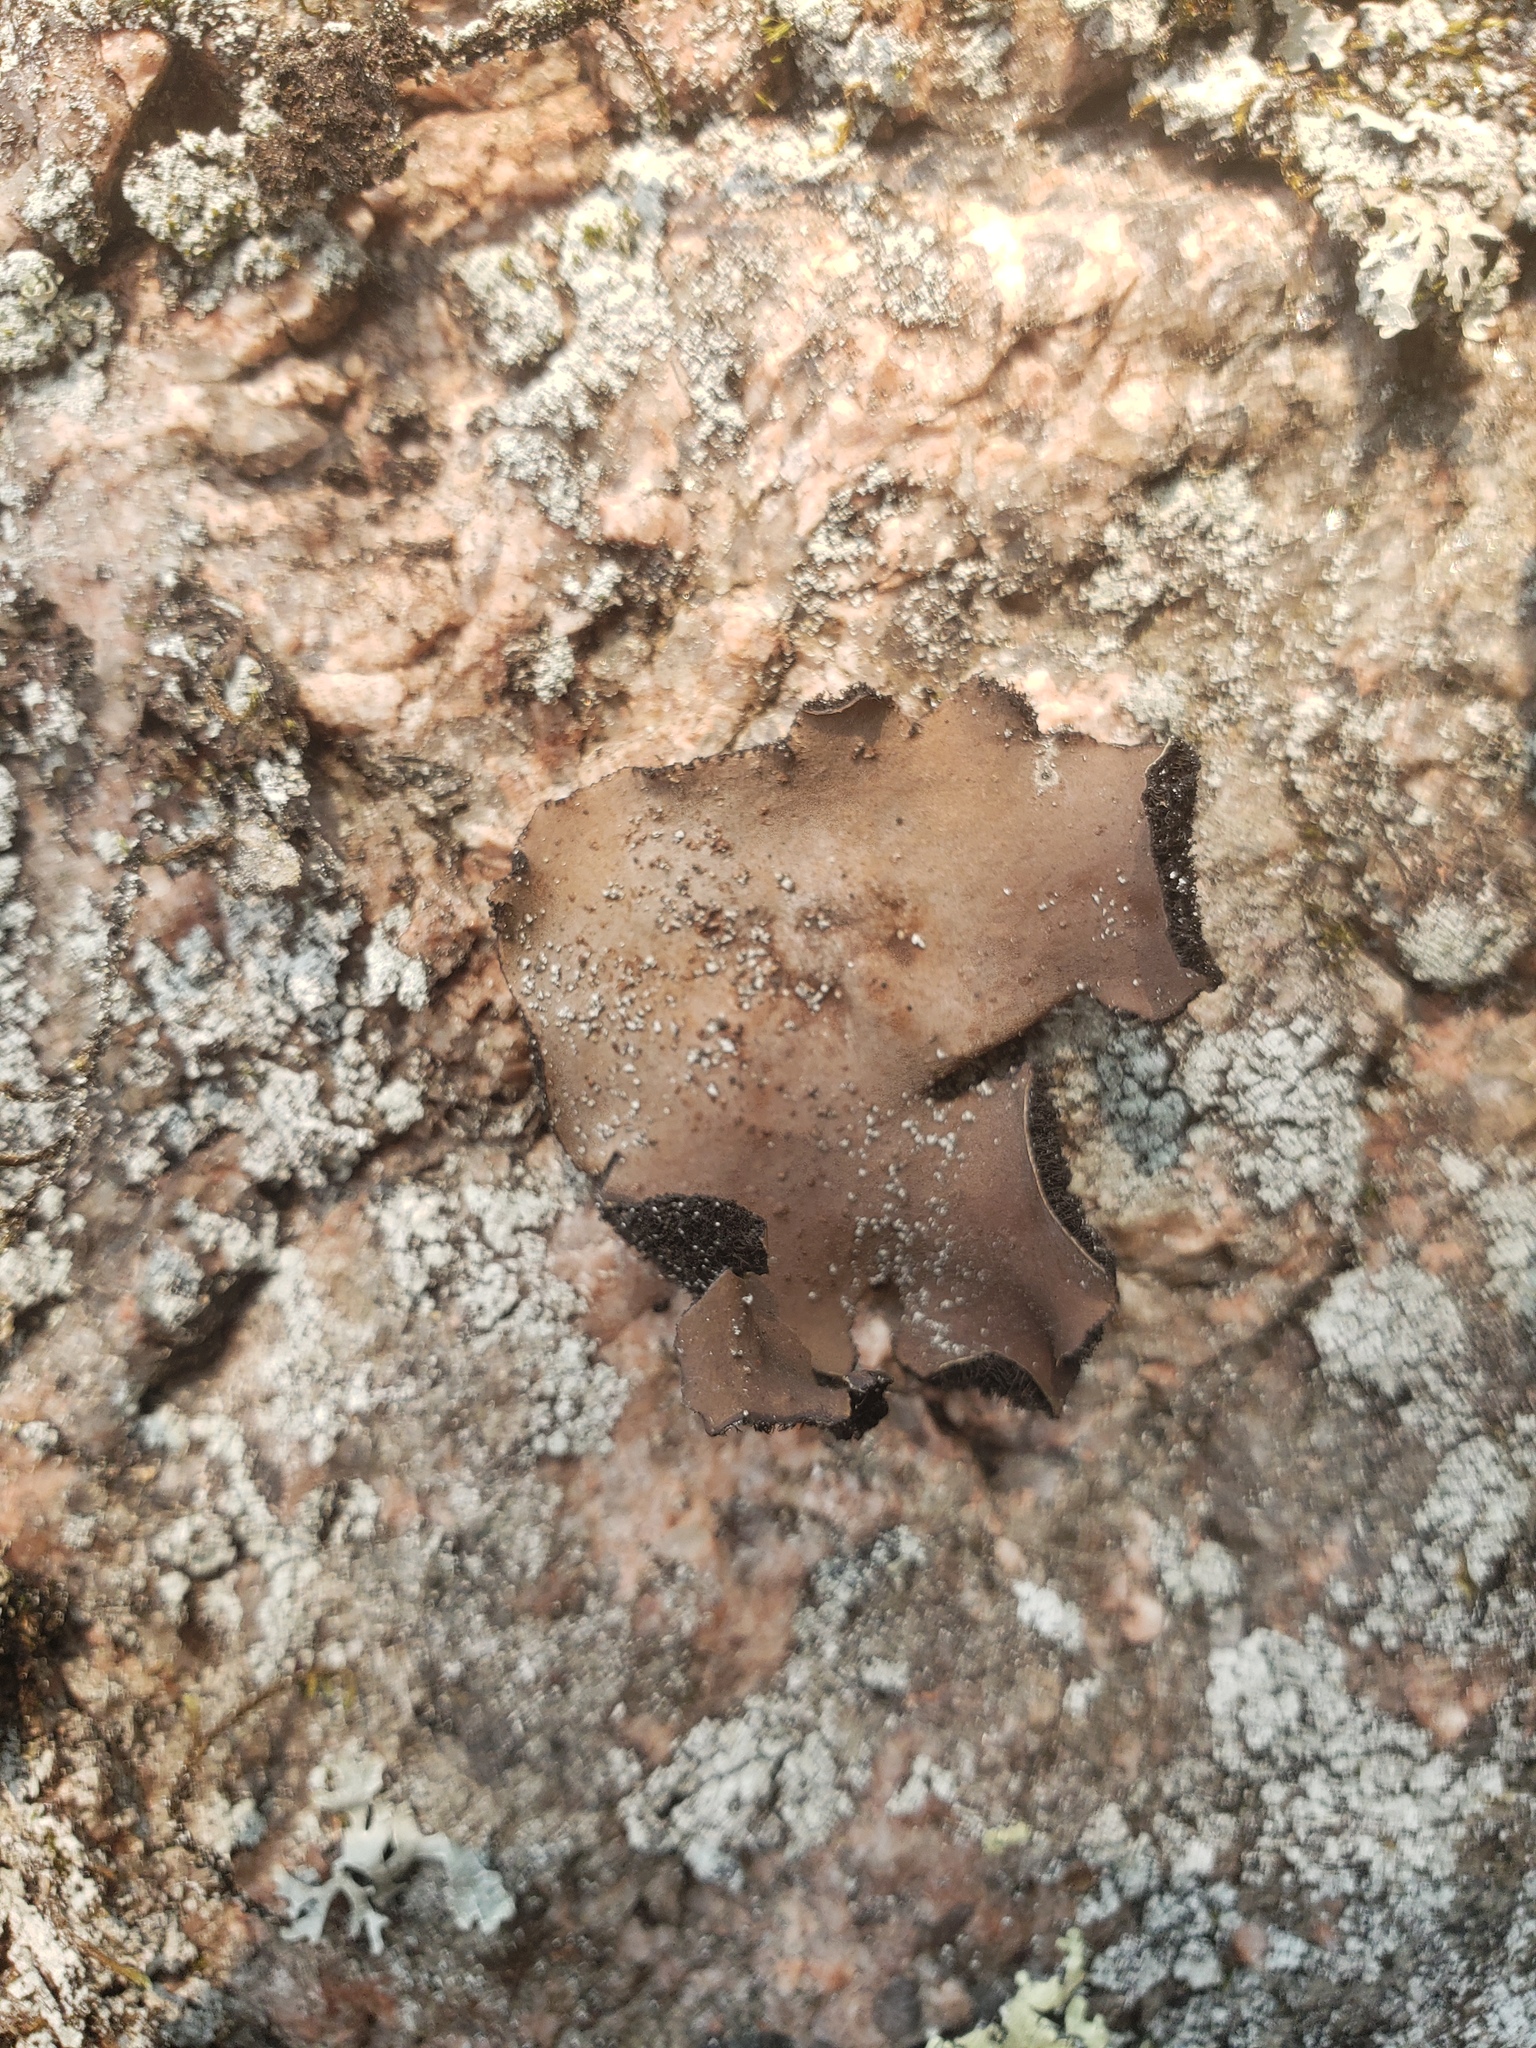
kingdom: Fungi
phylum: Ascomycota
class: Lecanoromycetes
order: Umbilicariales
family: Umbilicariaceae
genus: Umbilicaria
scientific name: Umbilicaria mammulata
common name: Smooth rock tripe
